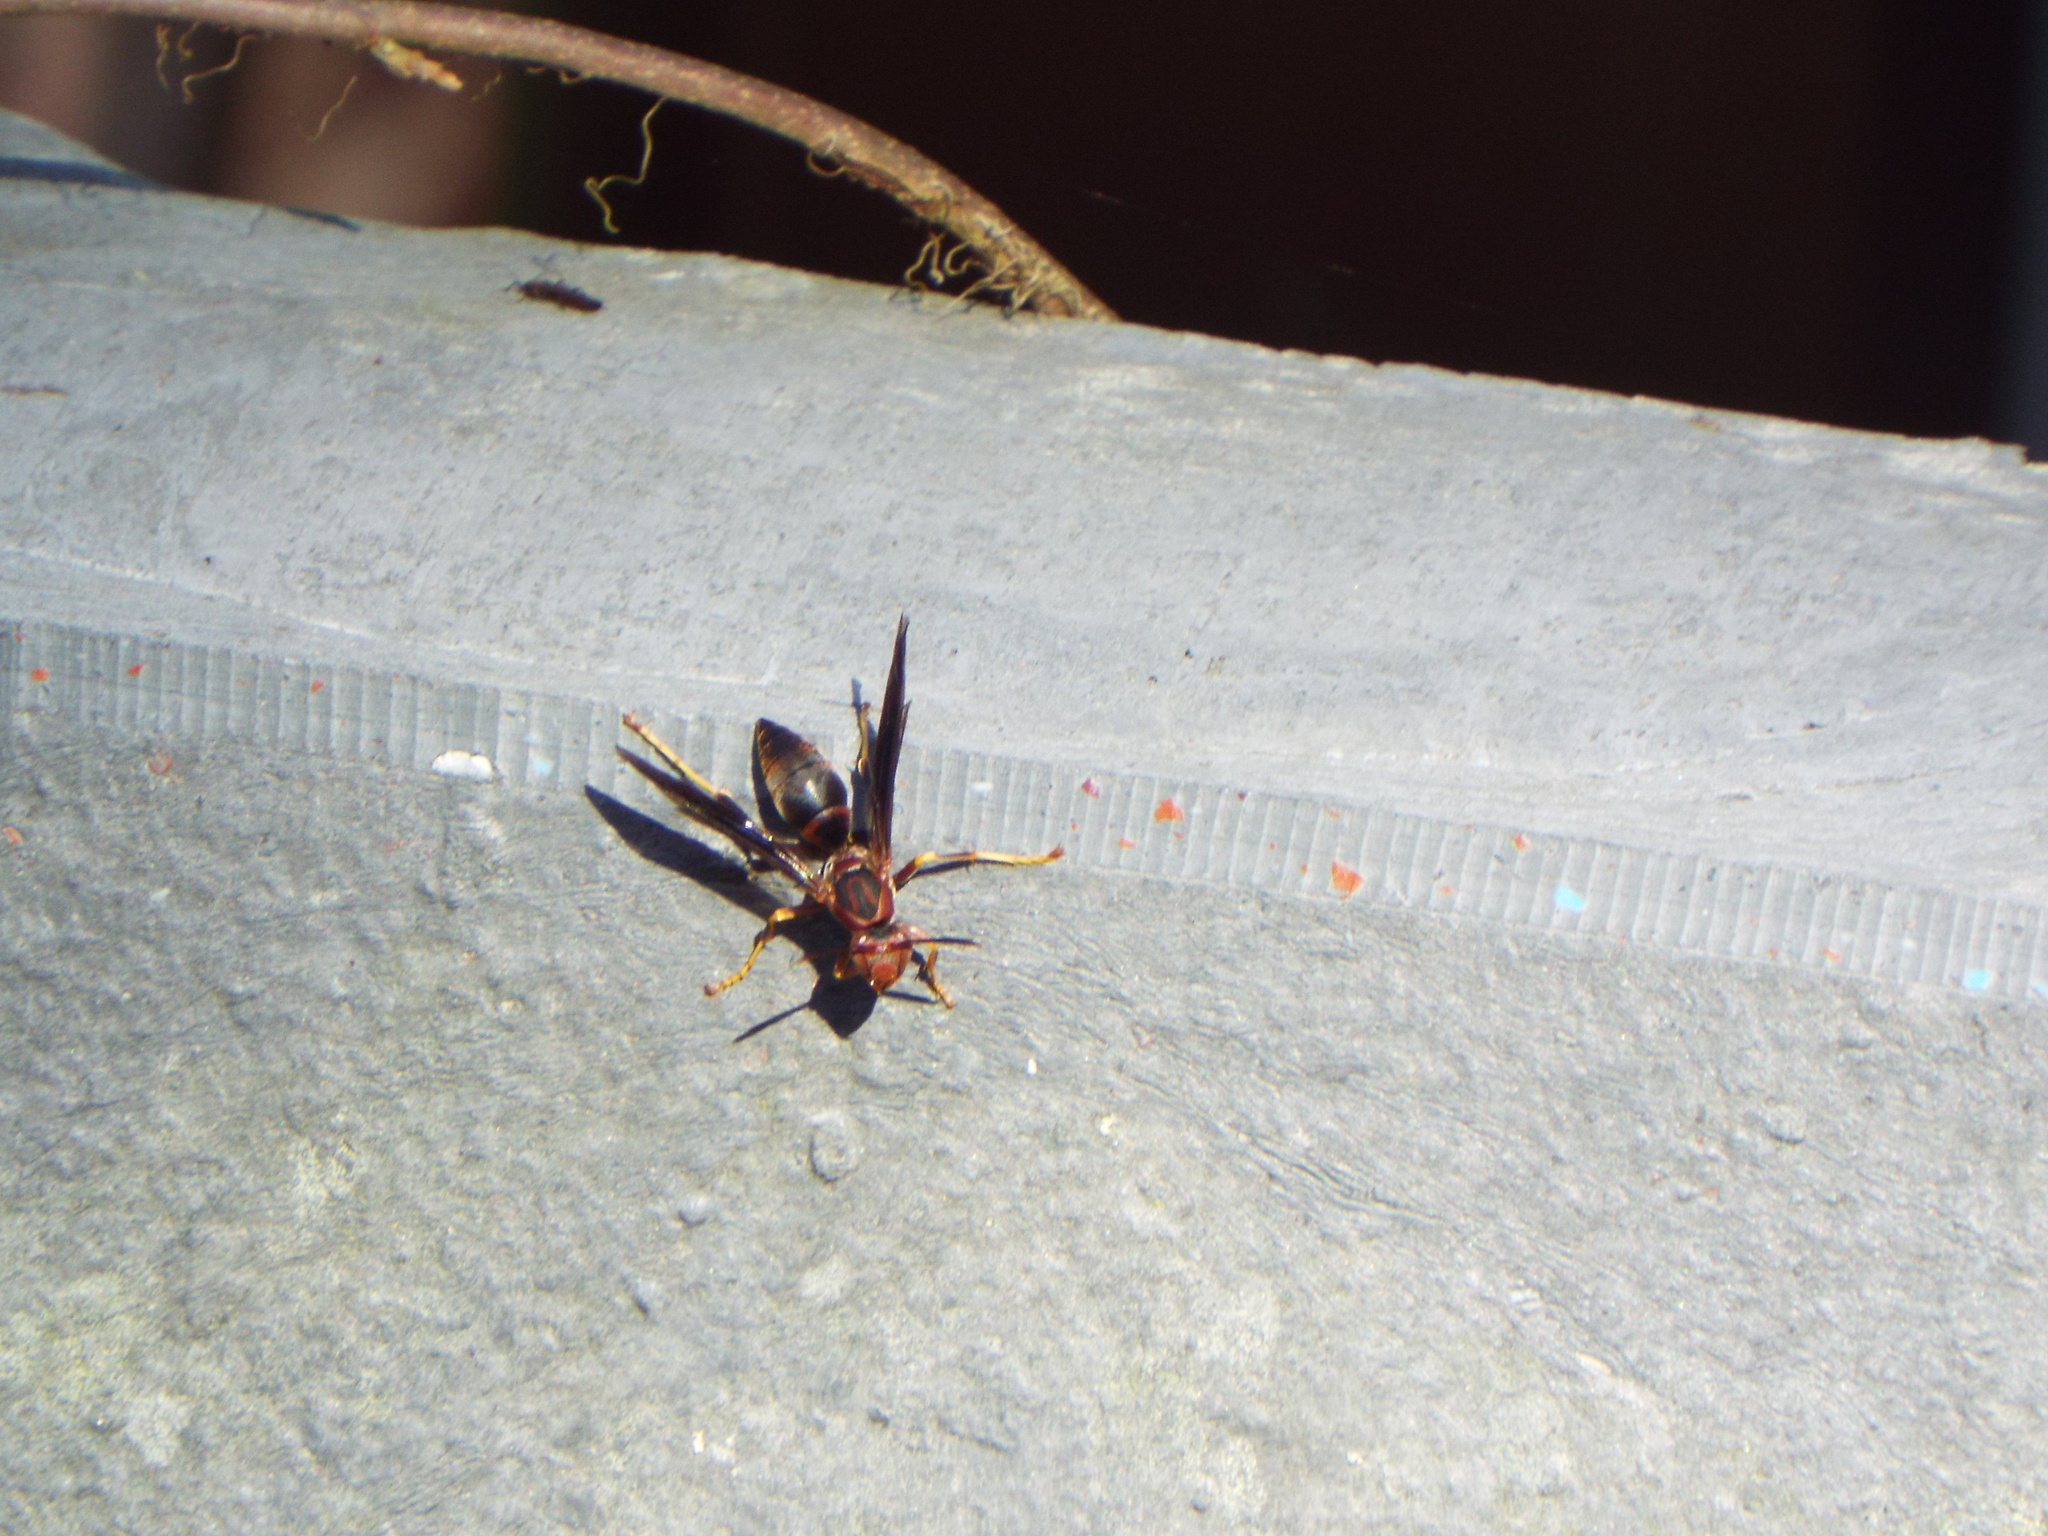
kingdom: Animalia
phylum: Arthropoda
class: Insecta
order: Hymenoptera
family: Eumenidae
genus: Polistes
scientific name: Polistes metricus
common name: Metric paper wasp
